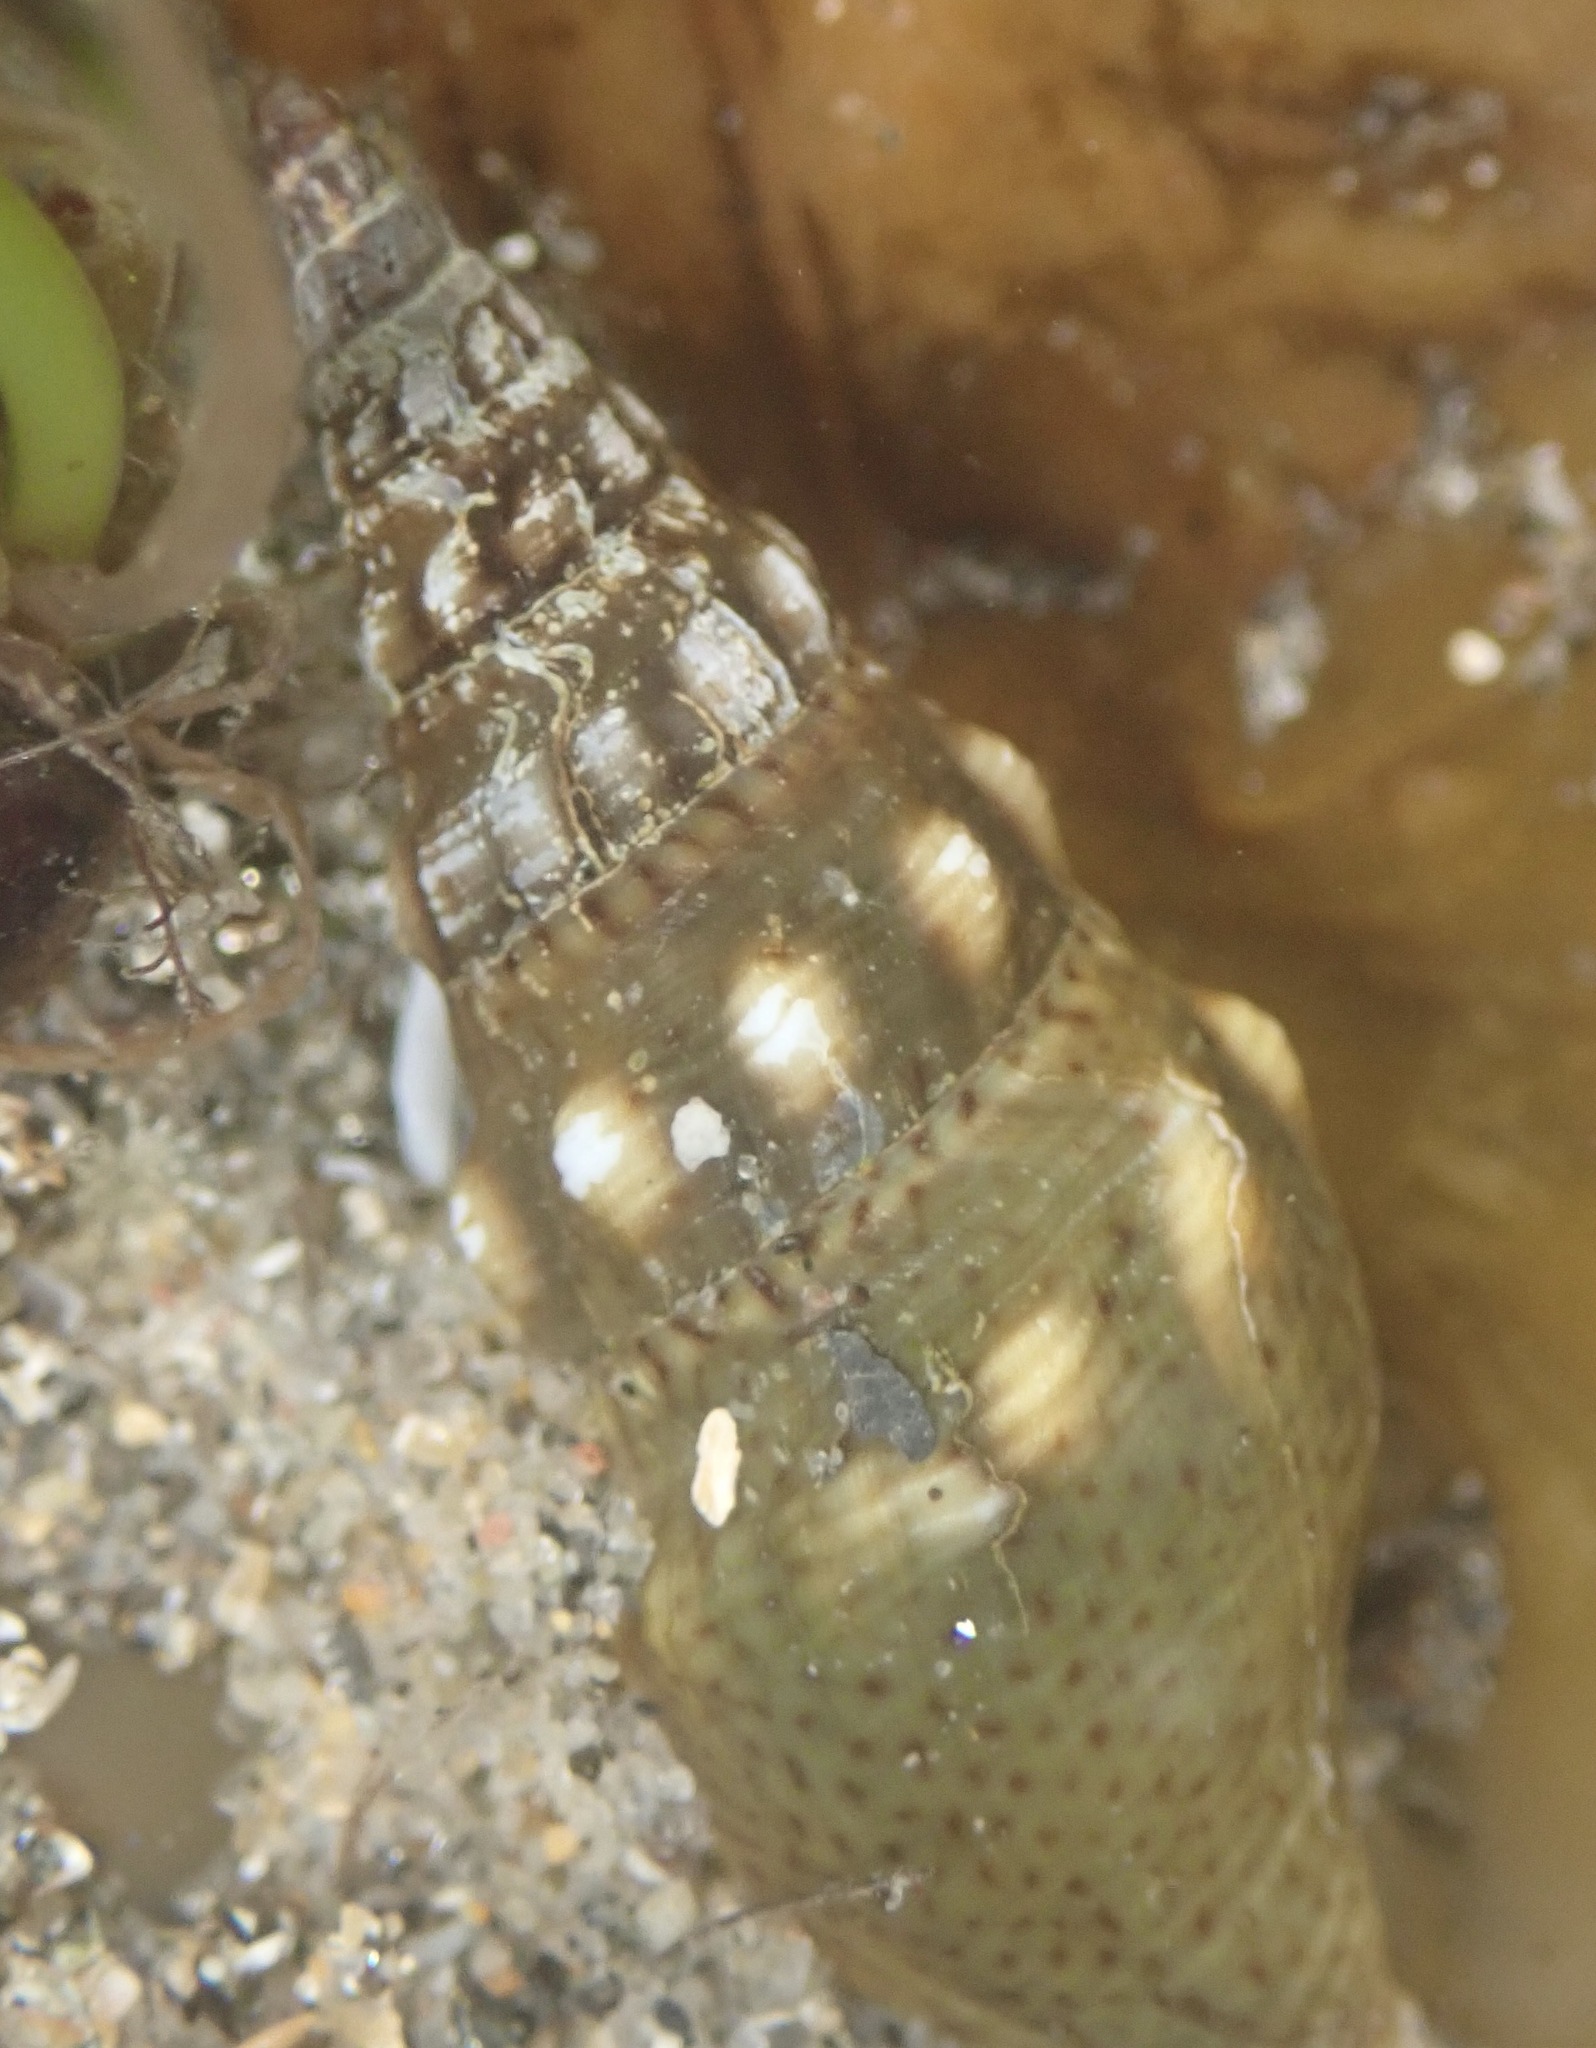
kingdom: Animalia
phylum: Mollusca
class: Gastropoda
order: Neogastropoda
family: Pseudomelatomidae
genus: Pseudomelatoma
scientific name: Pseudomelatoma penicillata
